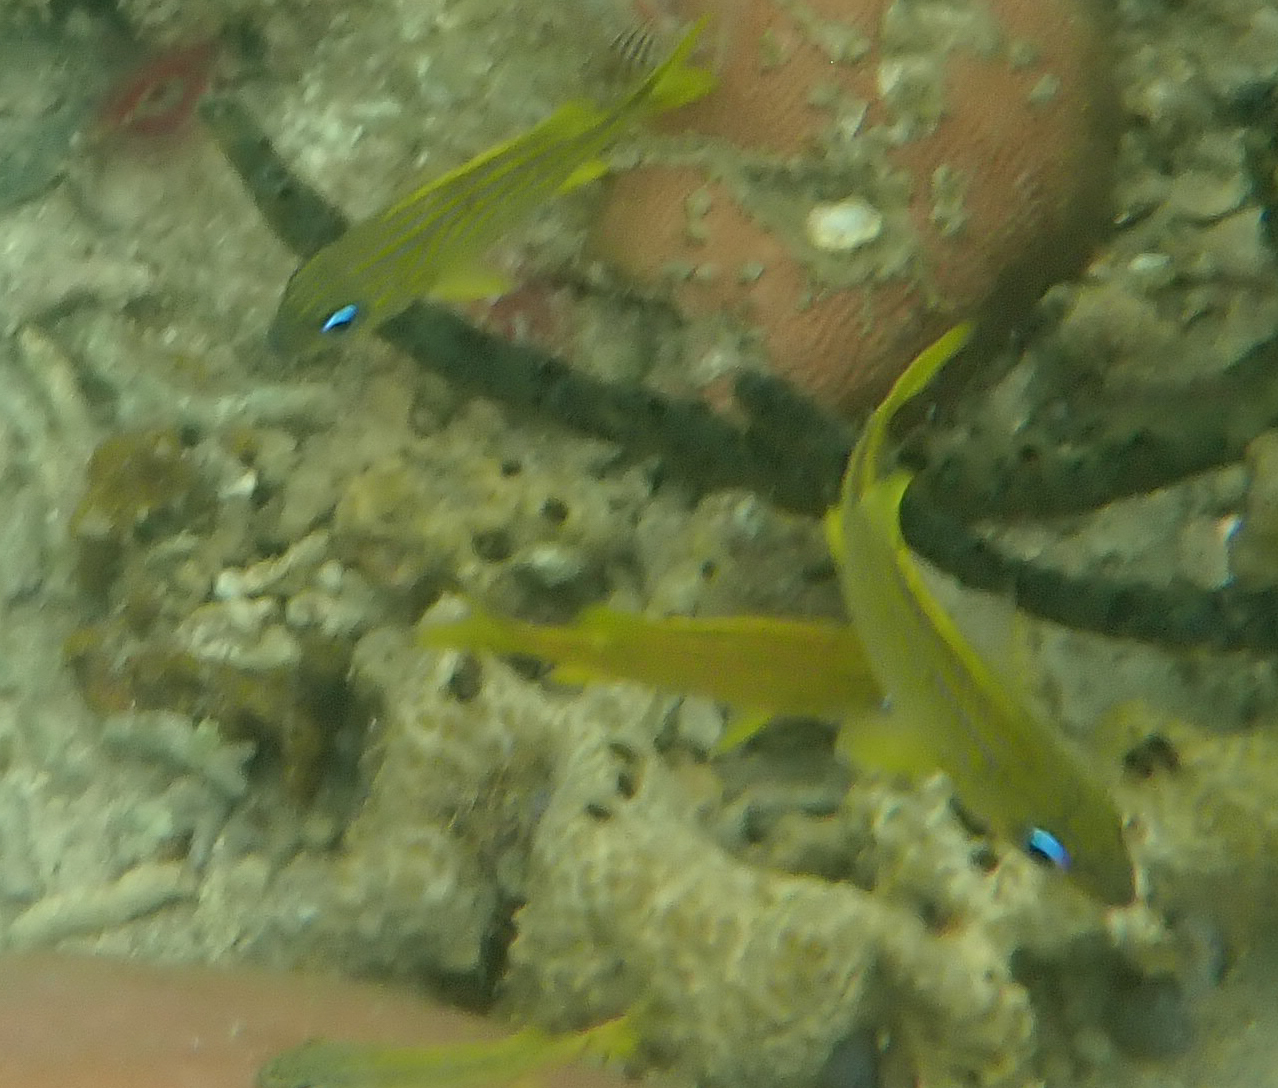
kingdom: Animalia
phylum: Chordata
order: Perciformes
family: Haemulidae
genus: Haemulon
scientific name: Haemulon flavolineatum
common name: French grunt
